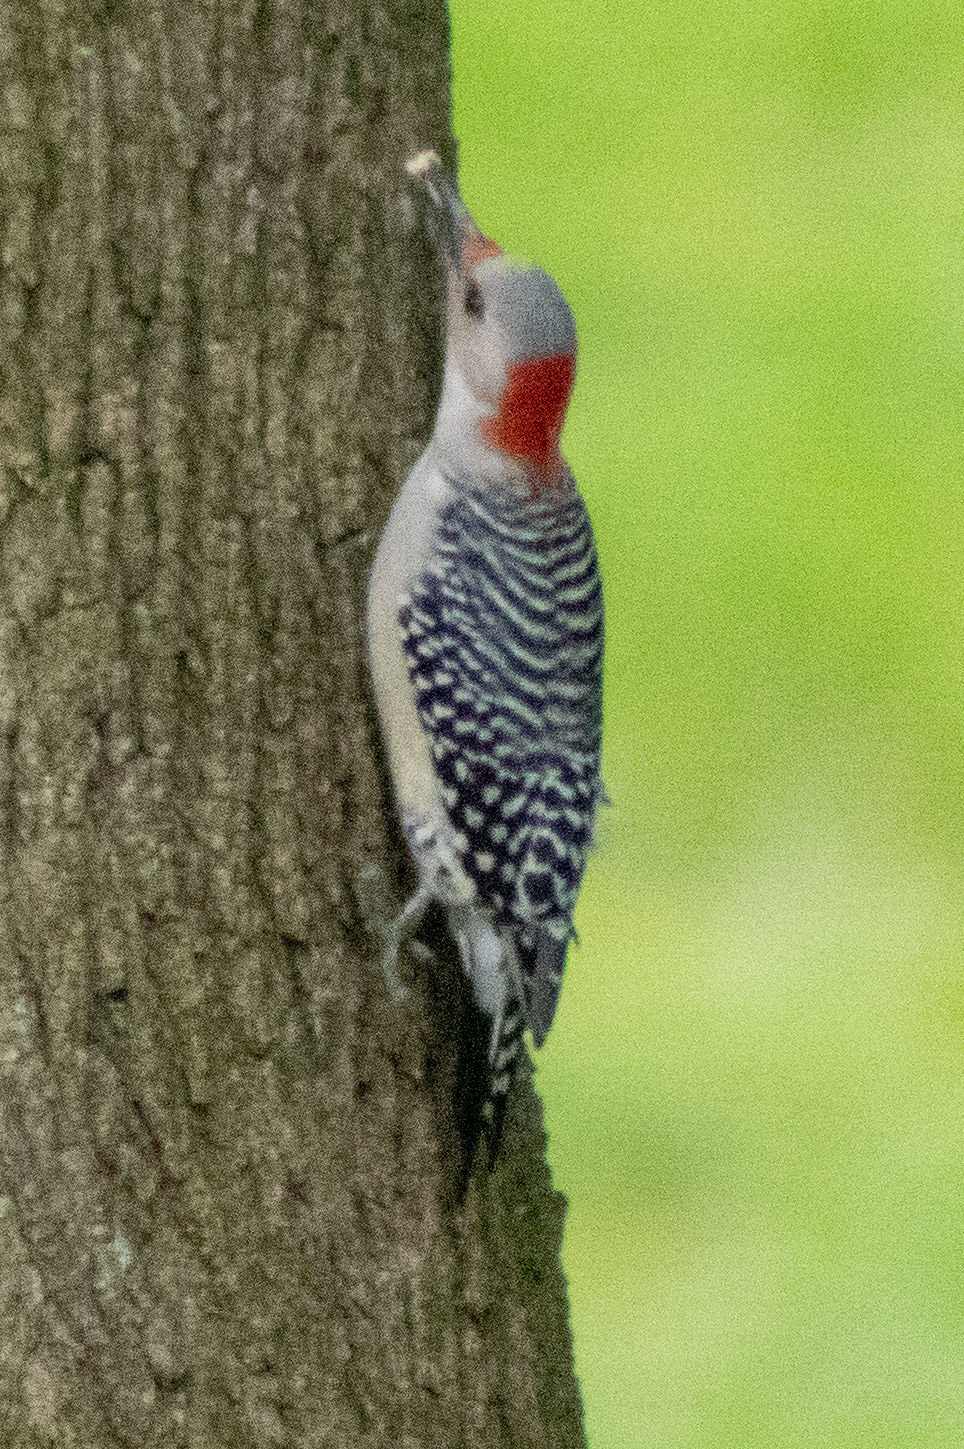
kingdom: Animalia
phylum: Chordata
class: Aves
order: Piciformes
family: Picidae
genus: Melanerpes
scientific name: Melanerpes carolinus
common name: Red-bellied woodpecker
